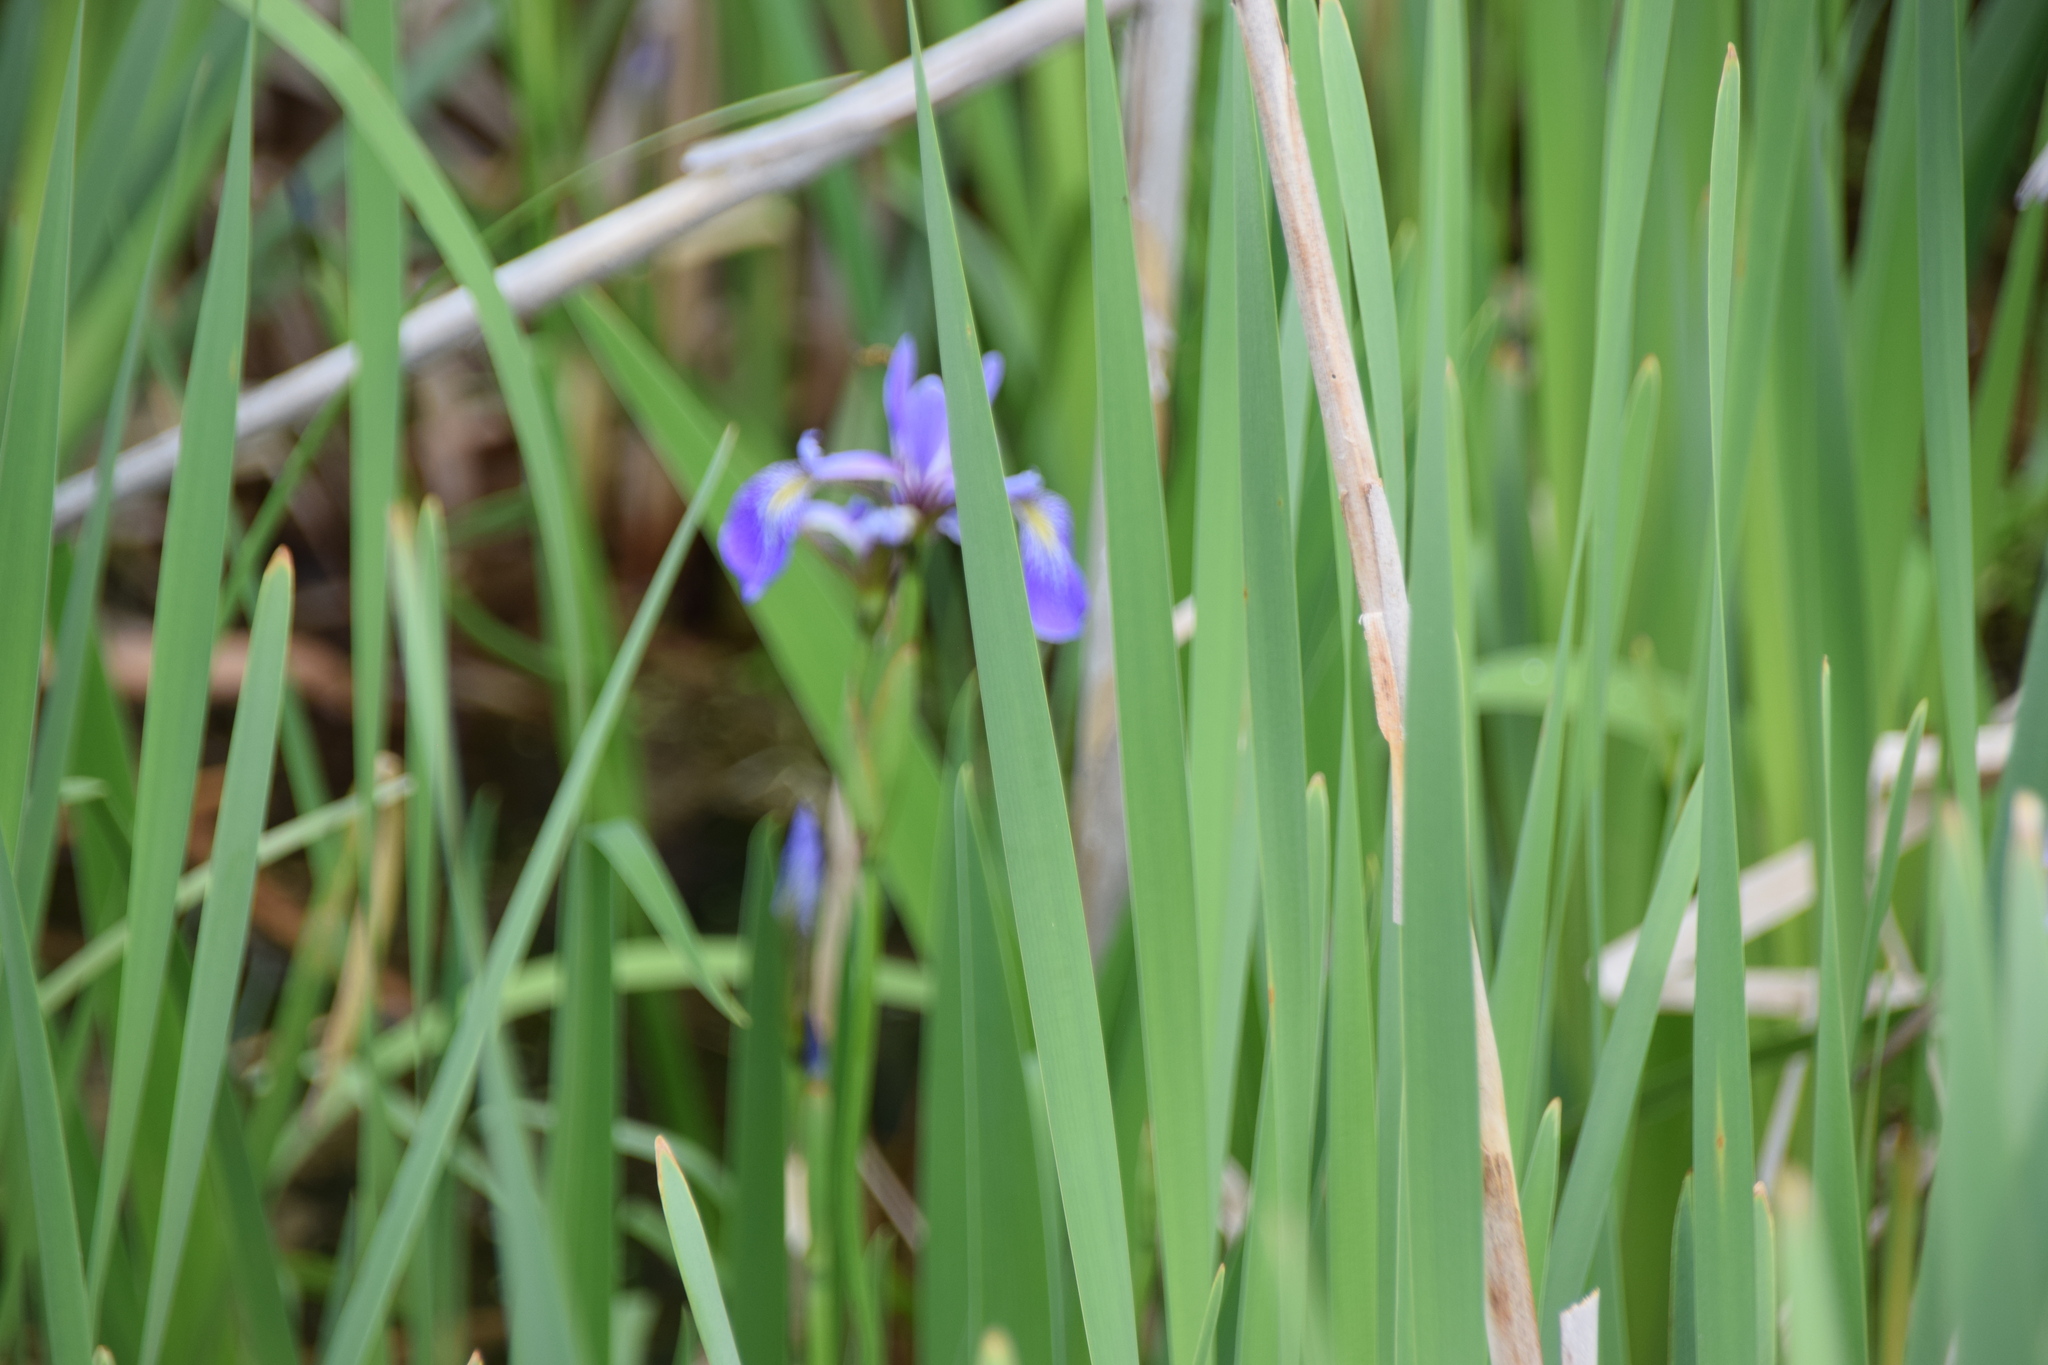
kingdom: Plantae
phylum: Tracheophyta
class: Liliopsida
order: Asparagales
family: Iridaceae
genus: Iris
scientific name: Iris versicolor
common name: Purple iris
